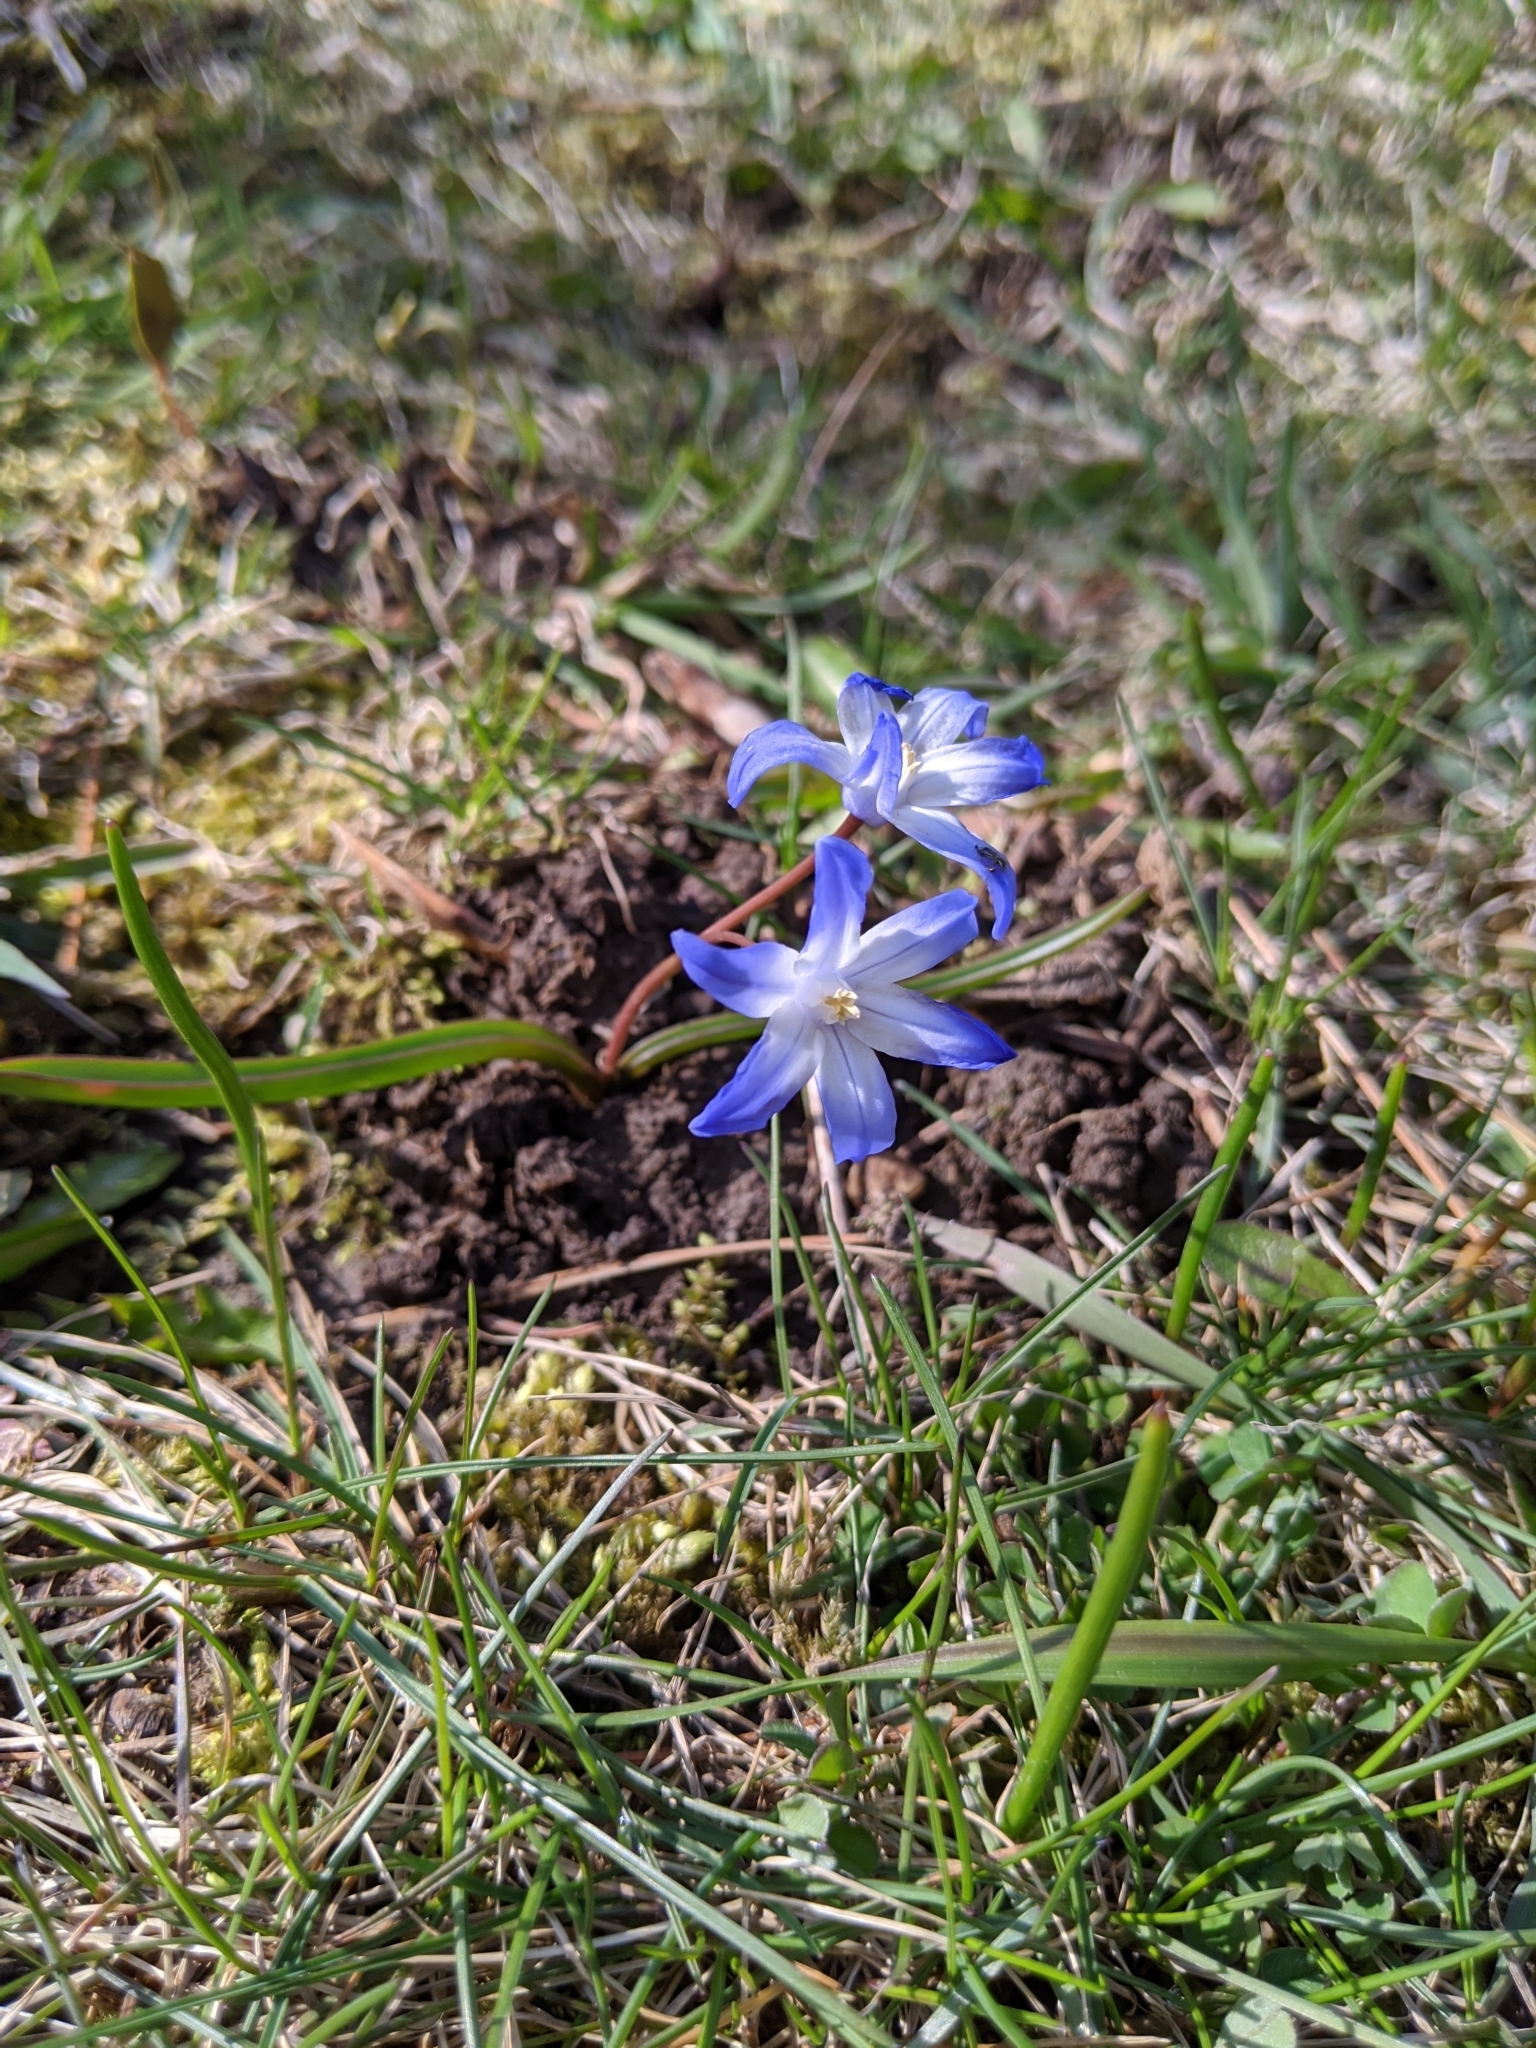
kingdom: Plantae
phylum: Tracheophyta
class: Liliopsida
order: Asparagales
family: Asparagaceae
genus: Scilla
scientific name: Scilla forbesii
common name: Glory-of-the-snow
